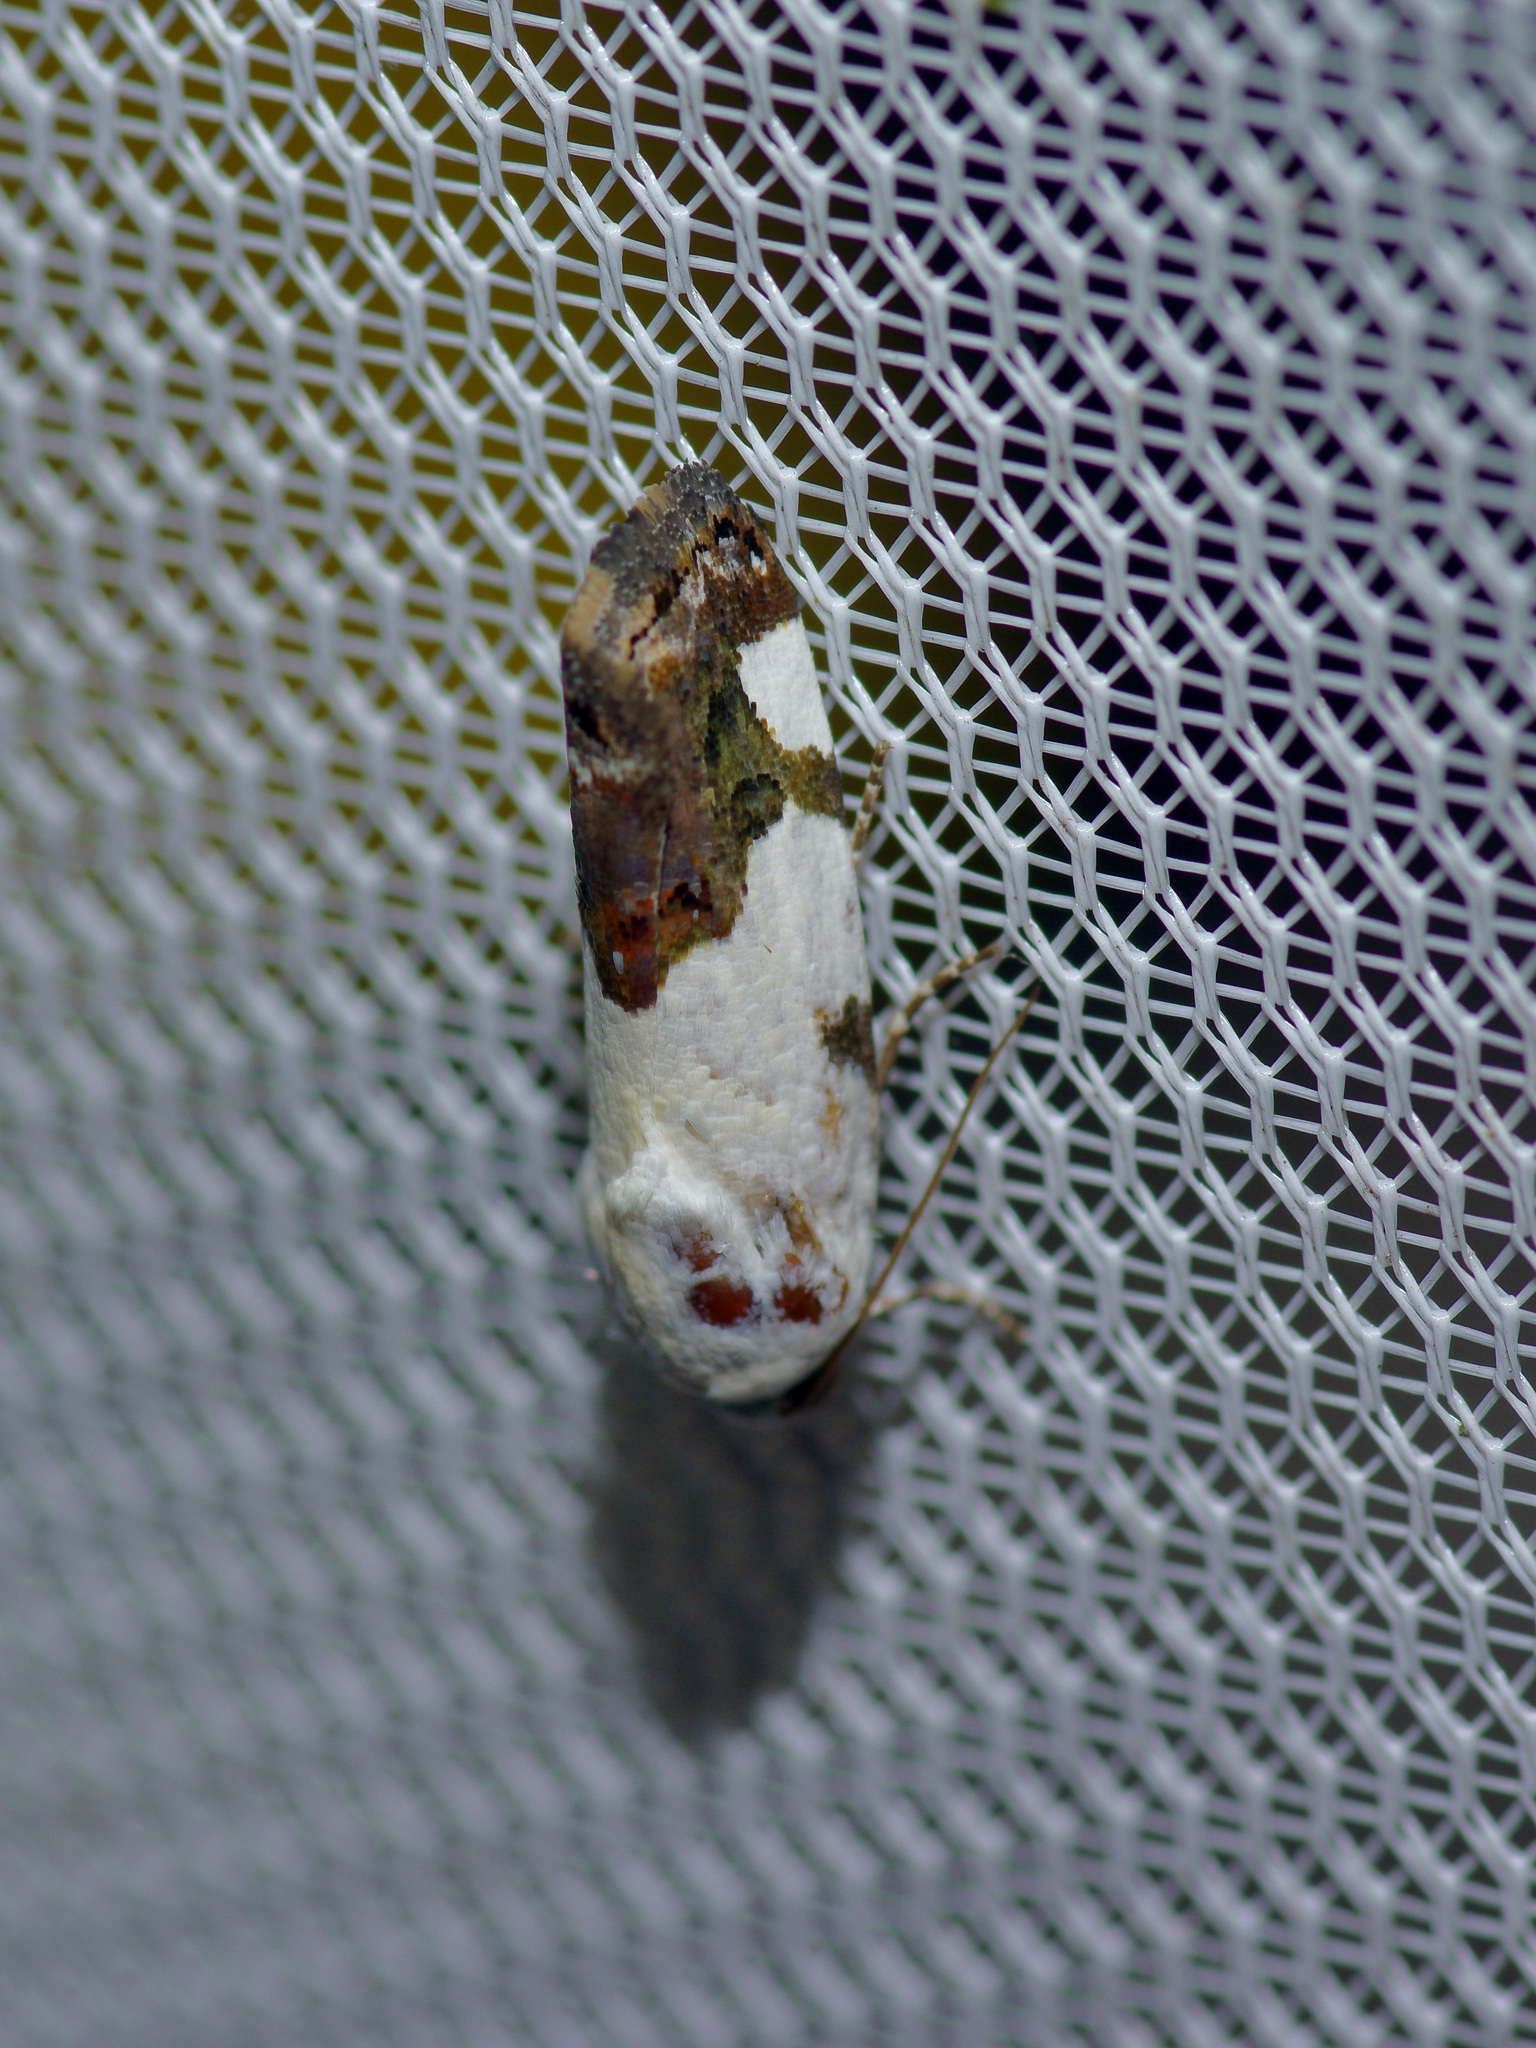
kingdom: Animalia
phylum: Arthropoda
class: Insecta
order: Lepidoptera
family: Noctuidae
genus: Acontia
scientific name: Acontia aprica
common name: Nun
